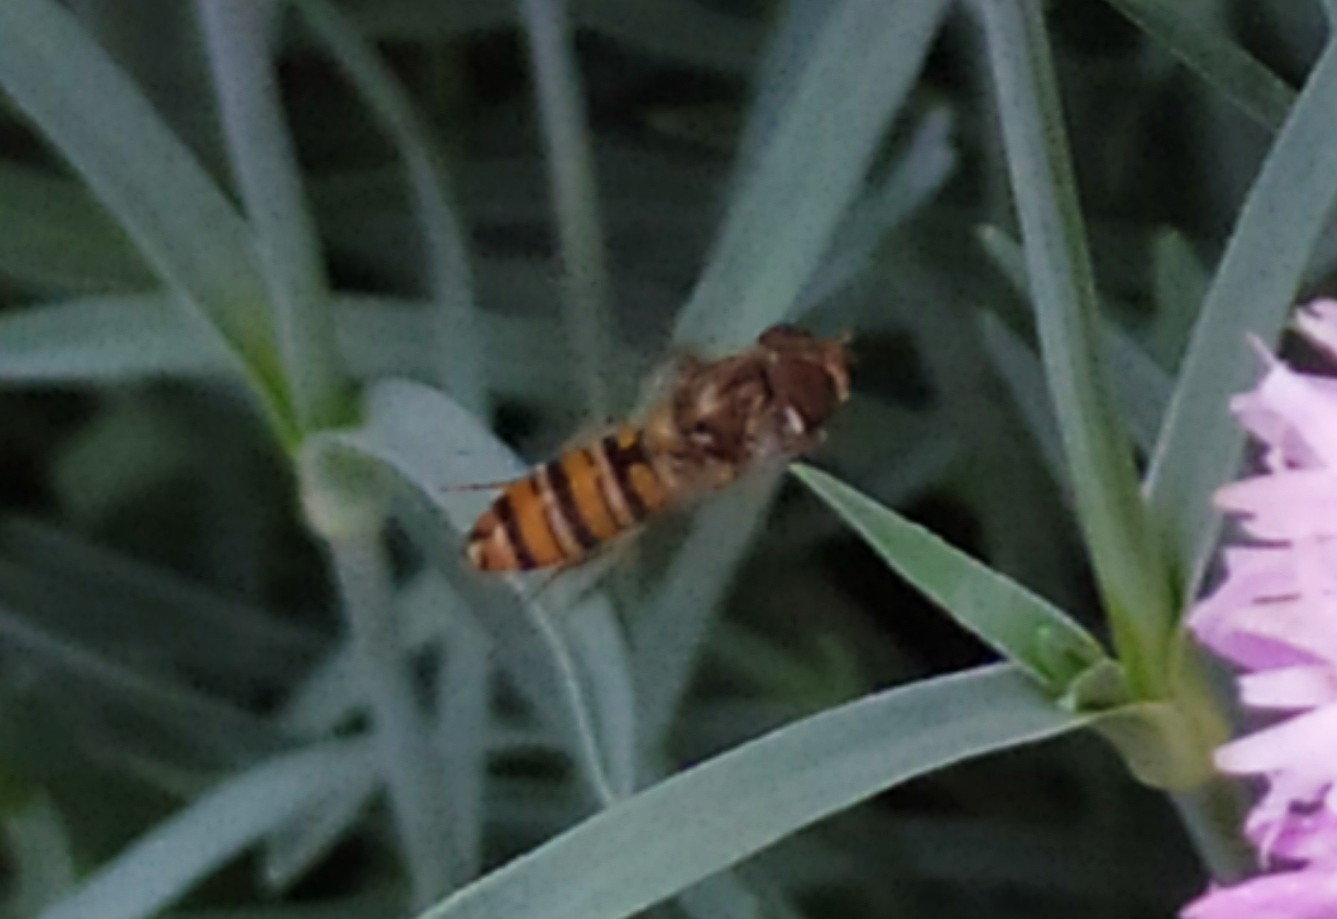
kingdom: Animalia
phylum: Arthropoda
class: Insecta
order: Diptera
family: Syrphidae
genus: Episyrphus
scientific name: Episyrphus balteatus
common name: Marmalade hoverfly
